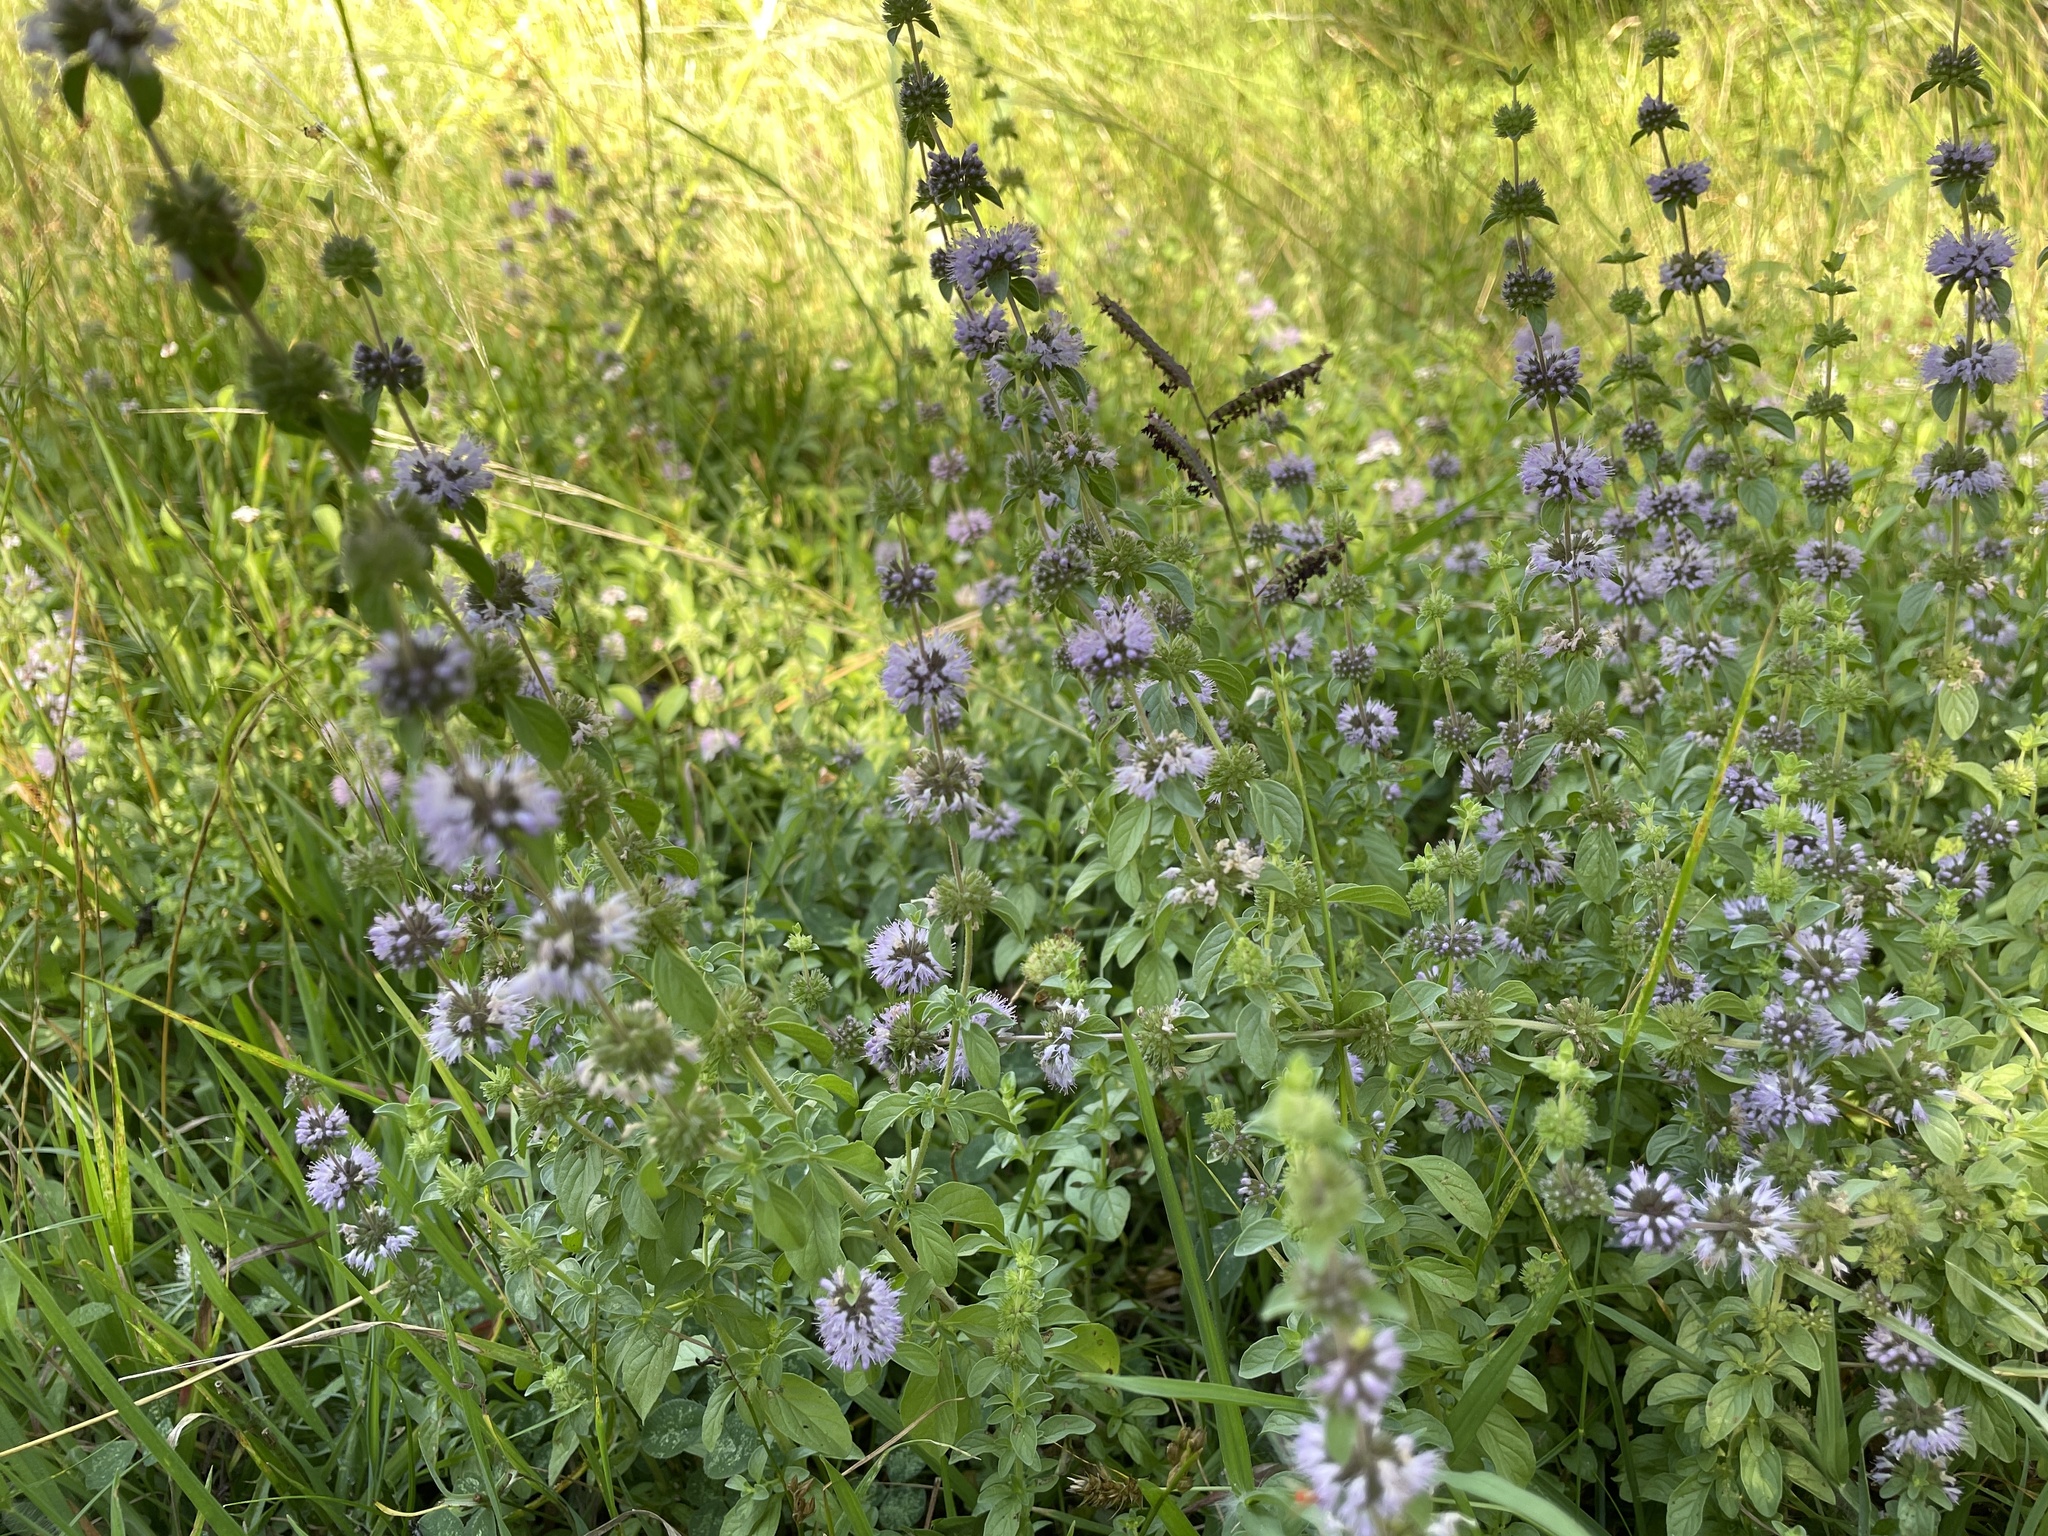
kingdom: Plantae
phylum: Tracheophyta
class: Magnoliopsida
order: Lamiales
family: Lamiaceae
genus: Mentha
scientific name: Mentha pulegium
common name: Pennyroyal
